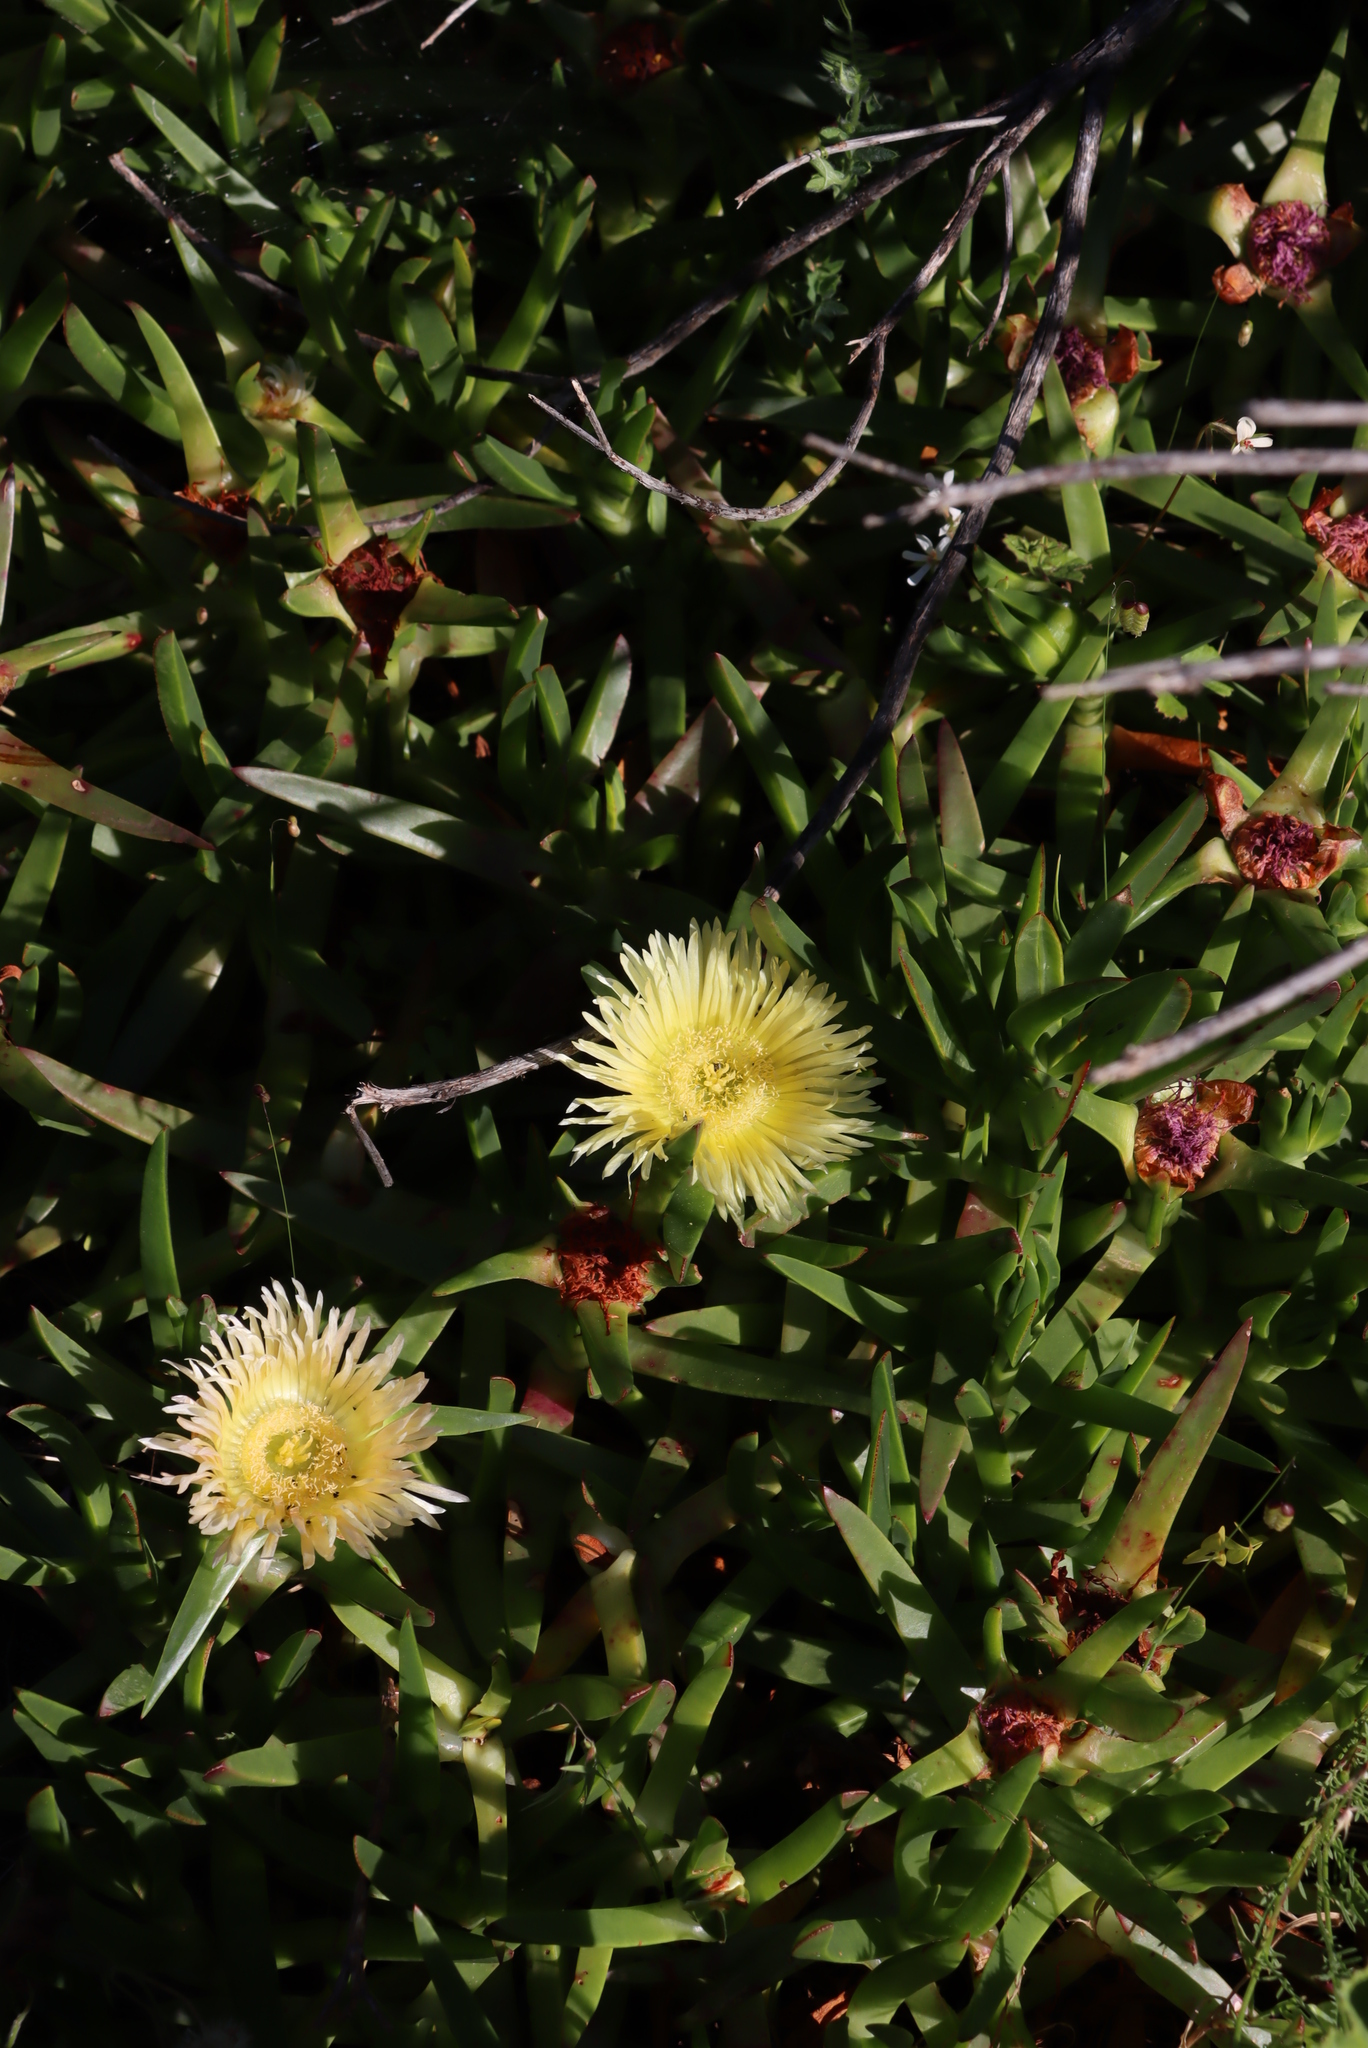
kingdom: Plantae
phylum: Tracheophyta
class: Magnoliopsida
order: Caryophyllales
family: Aizoaceae
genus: Carpobrotus
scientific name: Carpobrotus edulis
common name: Hottentot-fig
